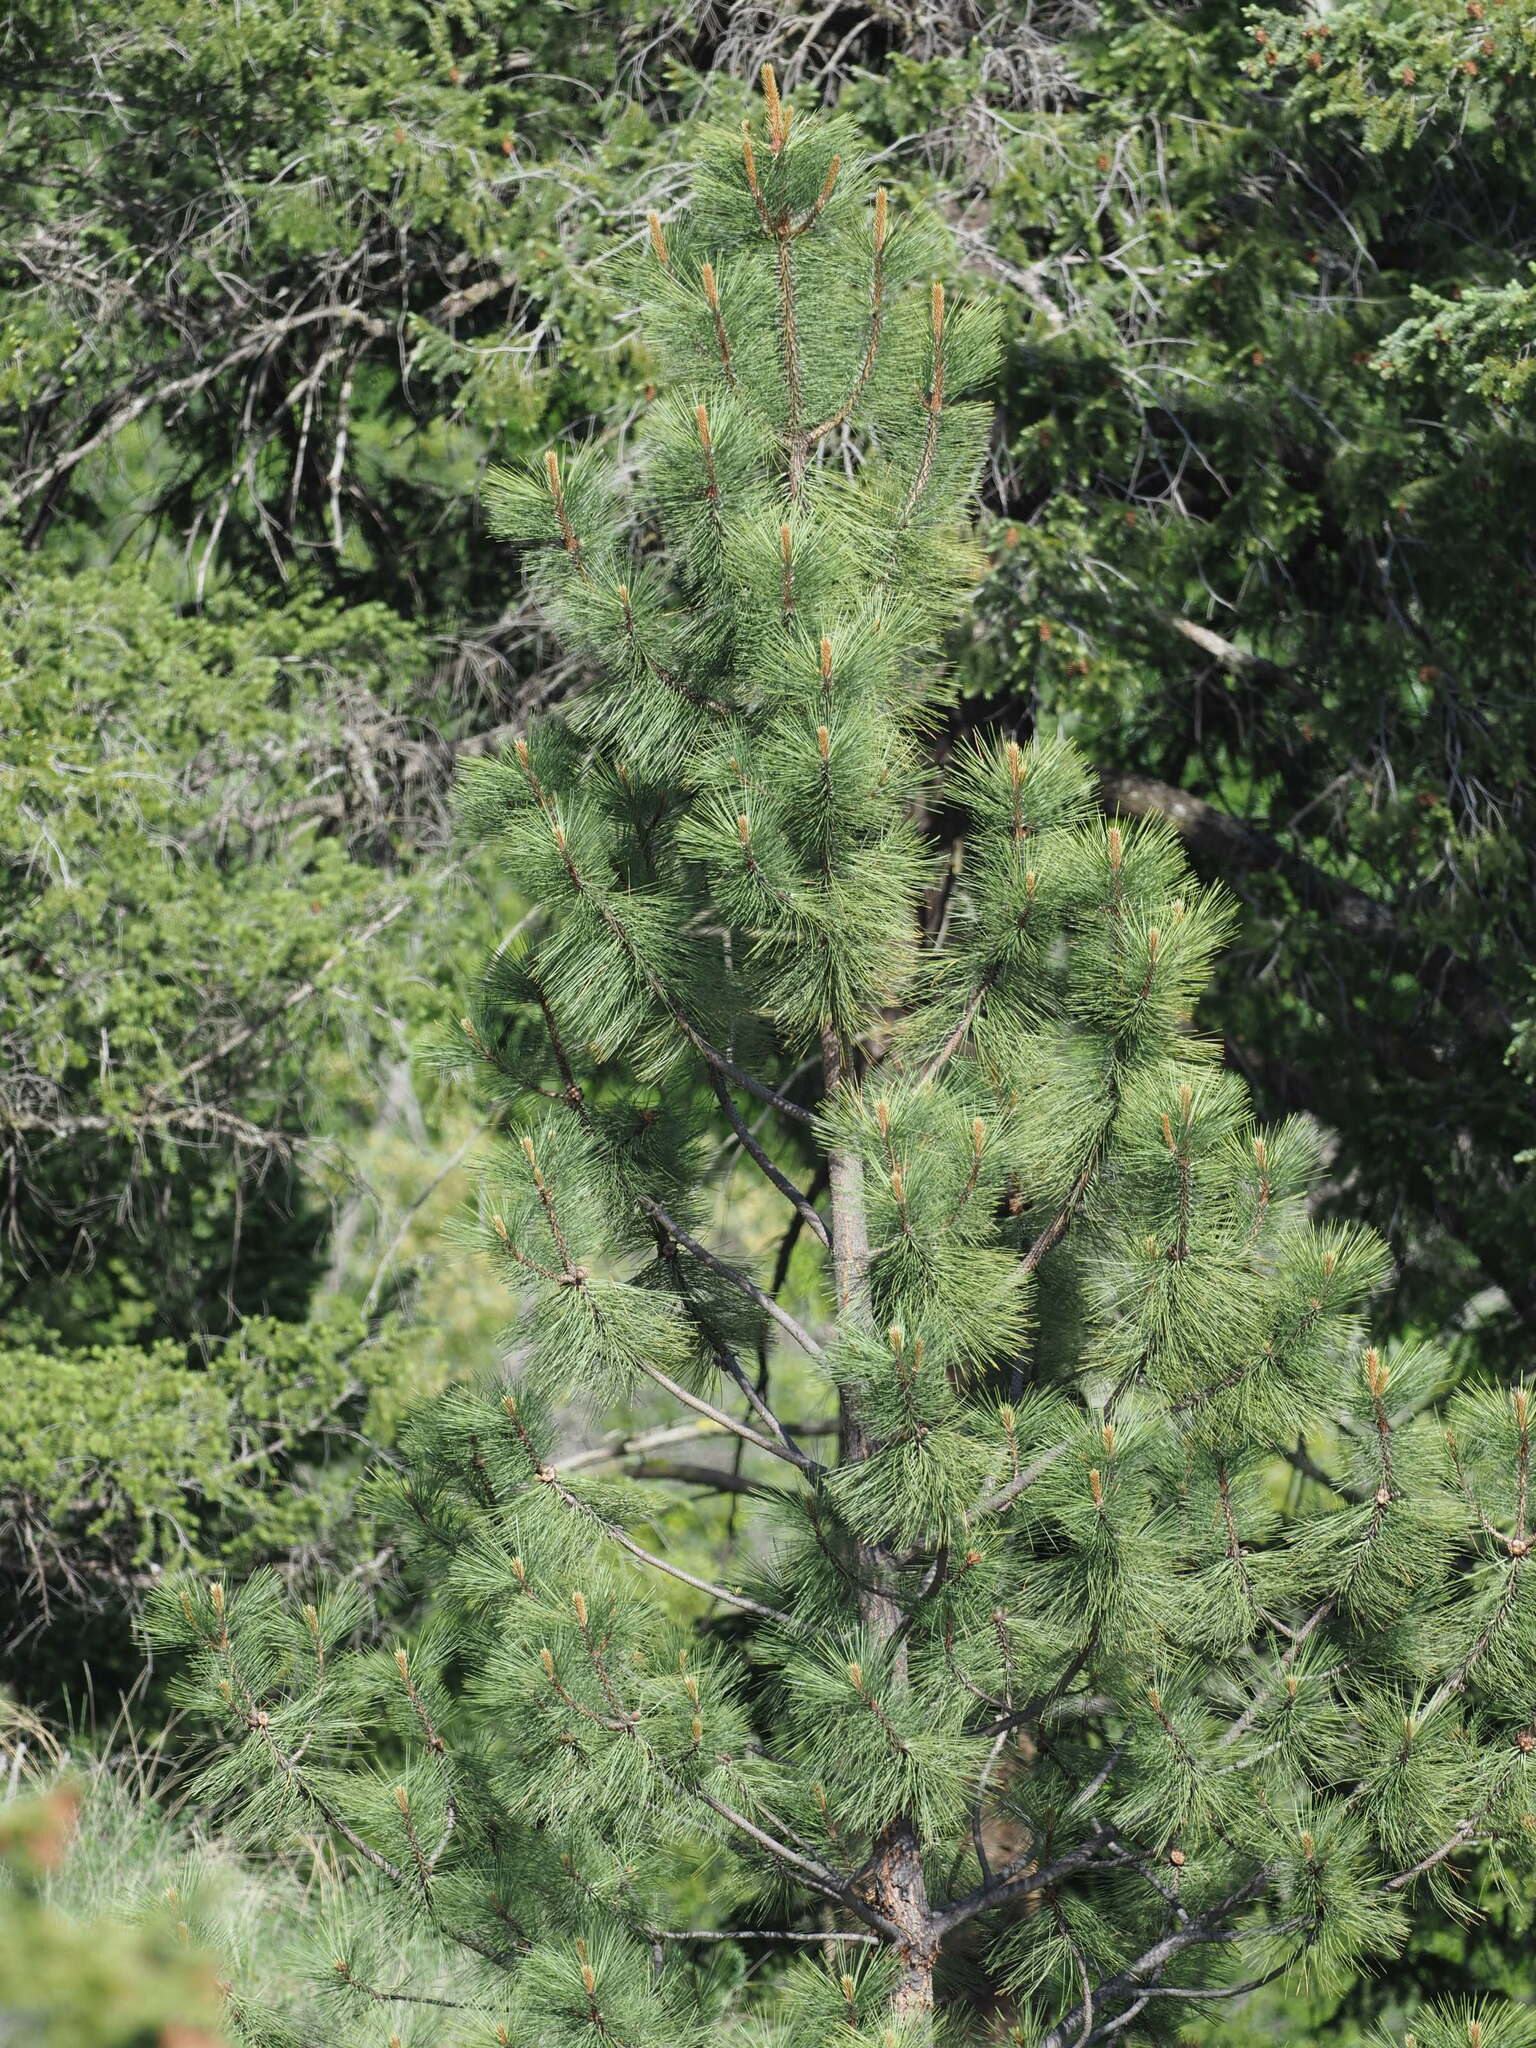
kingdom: Plantae
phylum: Tracheophyta
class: Pinopsida
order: Pinales
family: Pinaceae
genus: Pinus
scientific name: Pinus ponderosa
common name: Western yellow-pine
